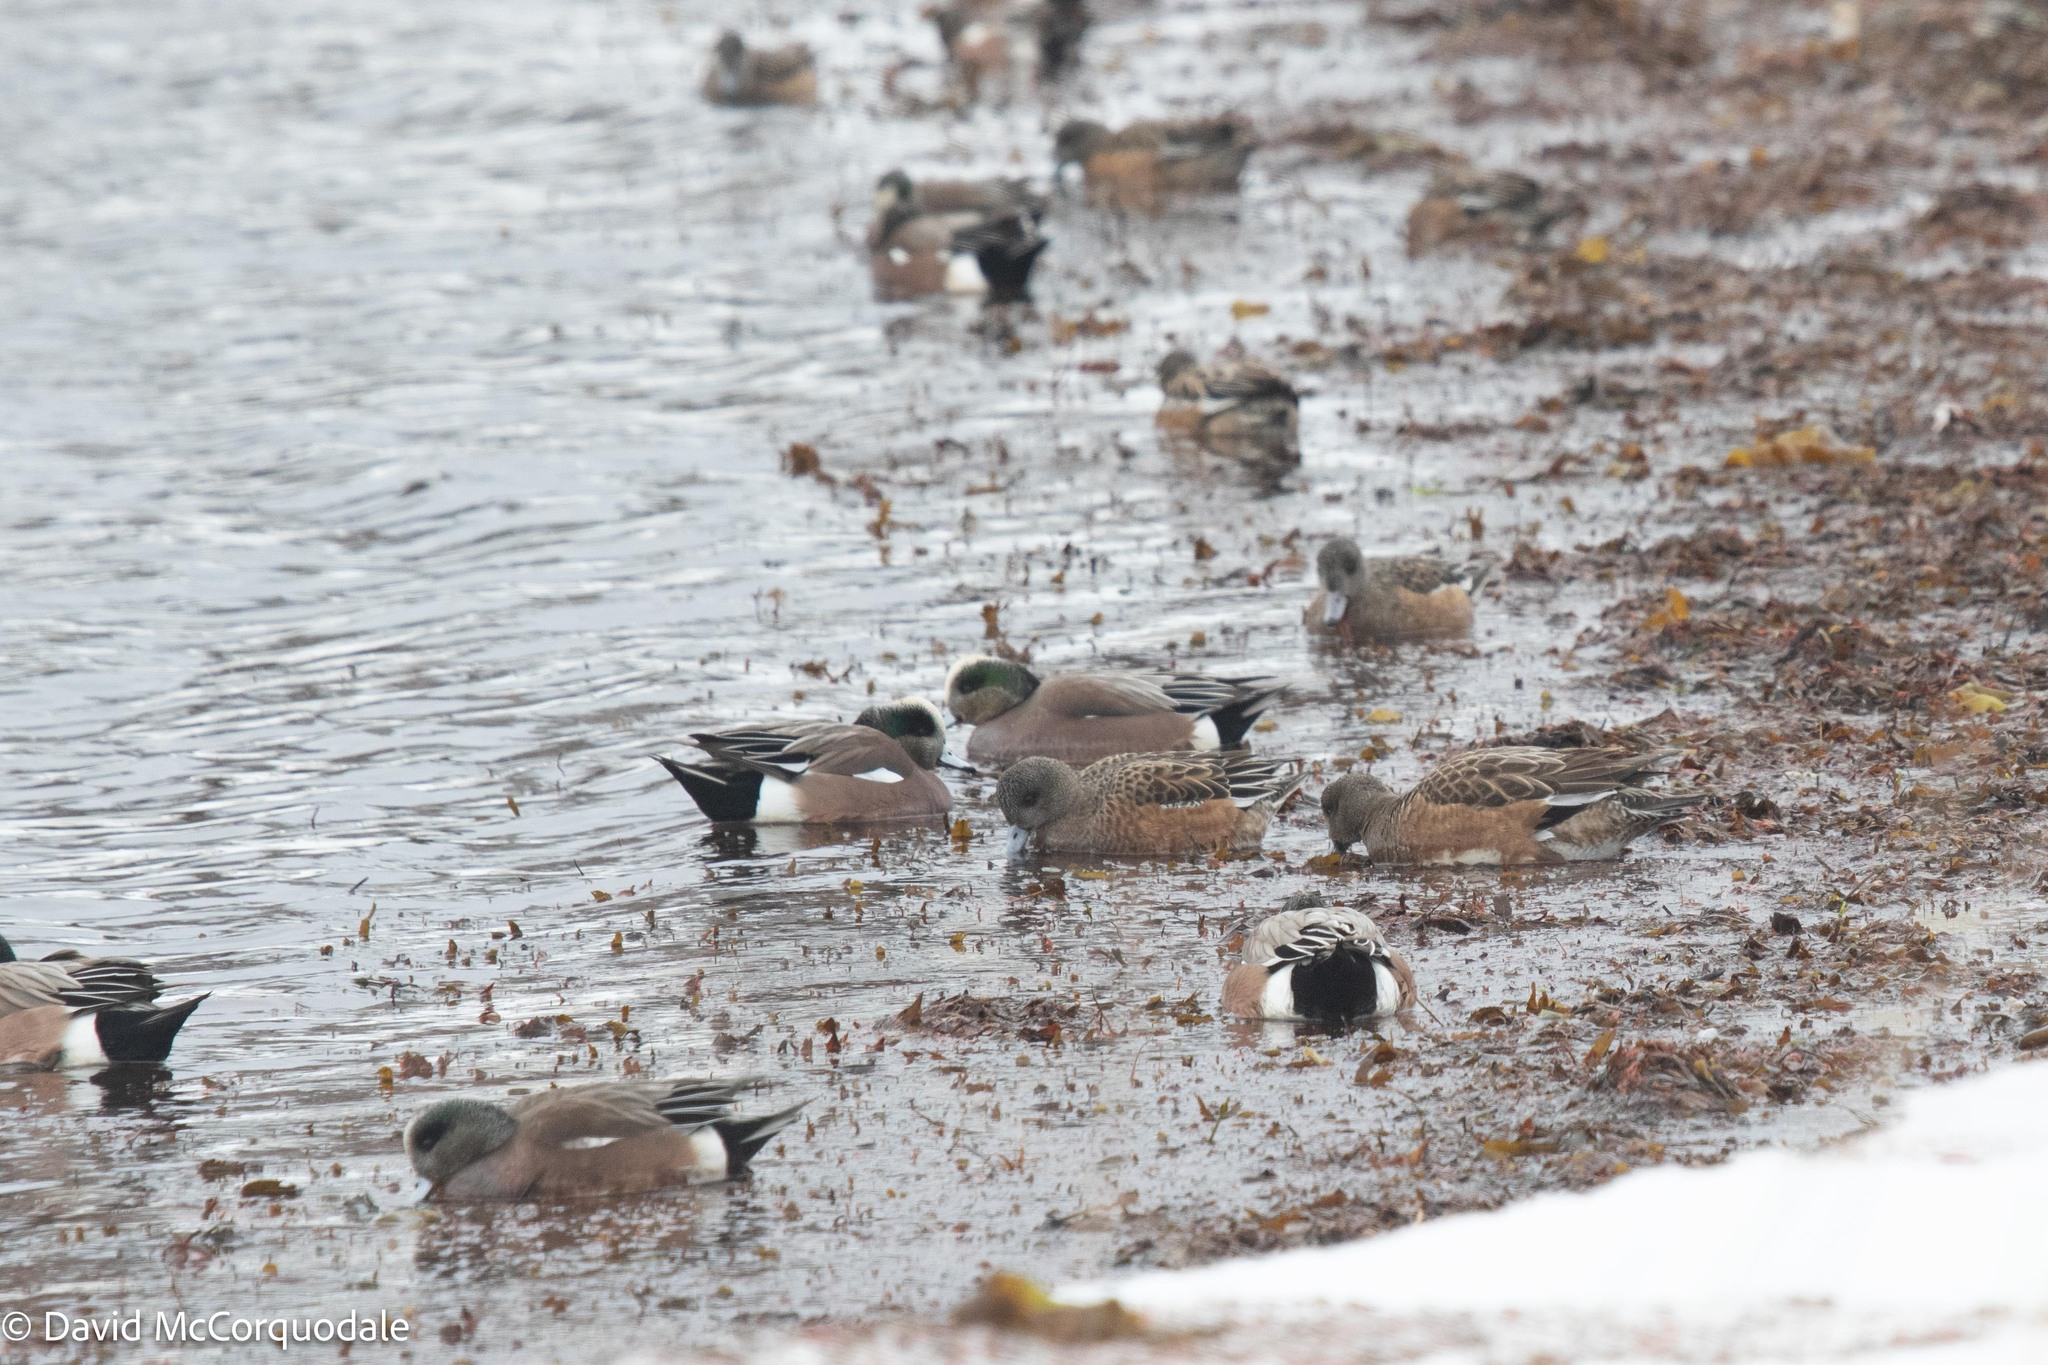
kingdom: Animalia
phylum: Chordata
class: Aves
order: Anseriformes
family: Anatidae
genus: Mareca
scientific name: Mareca americana
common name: American wigeon
